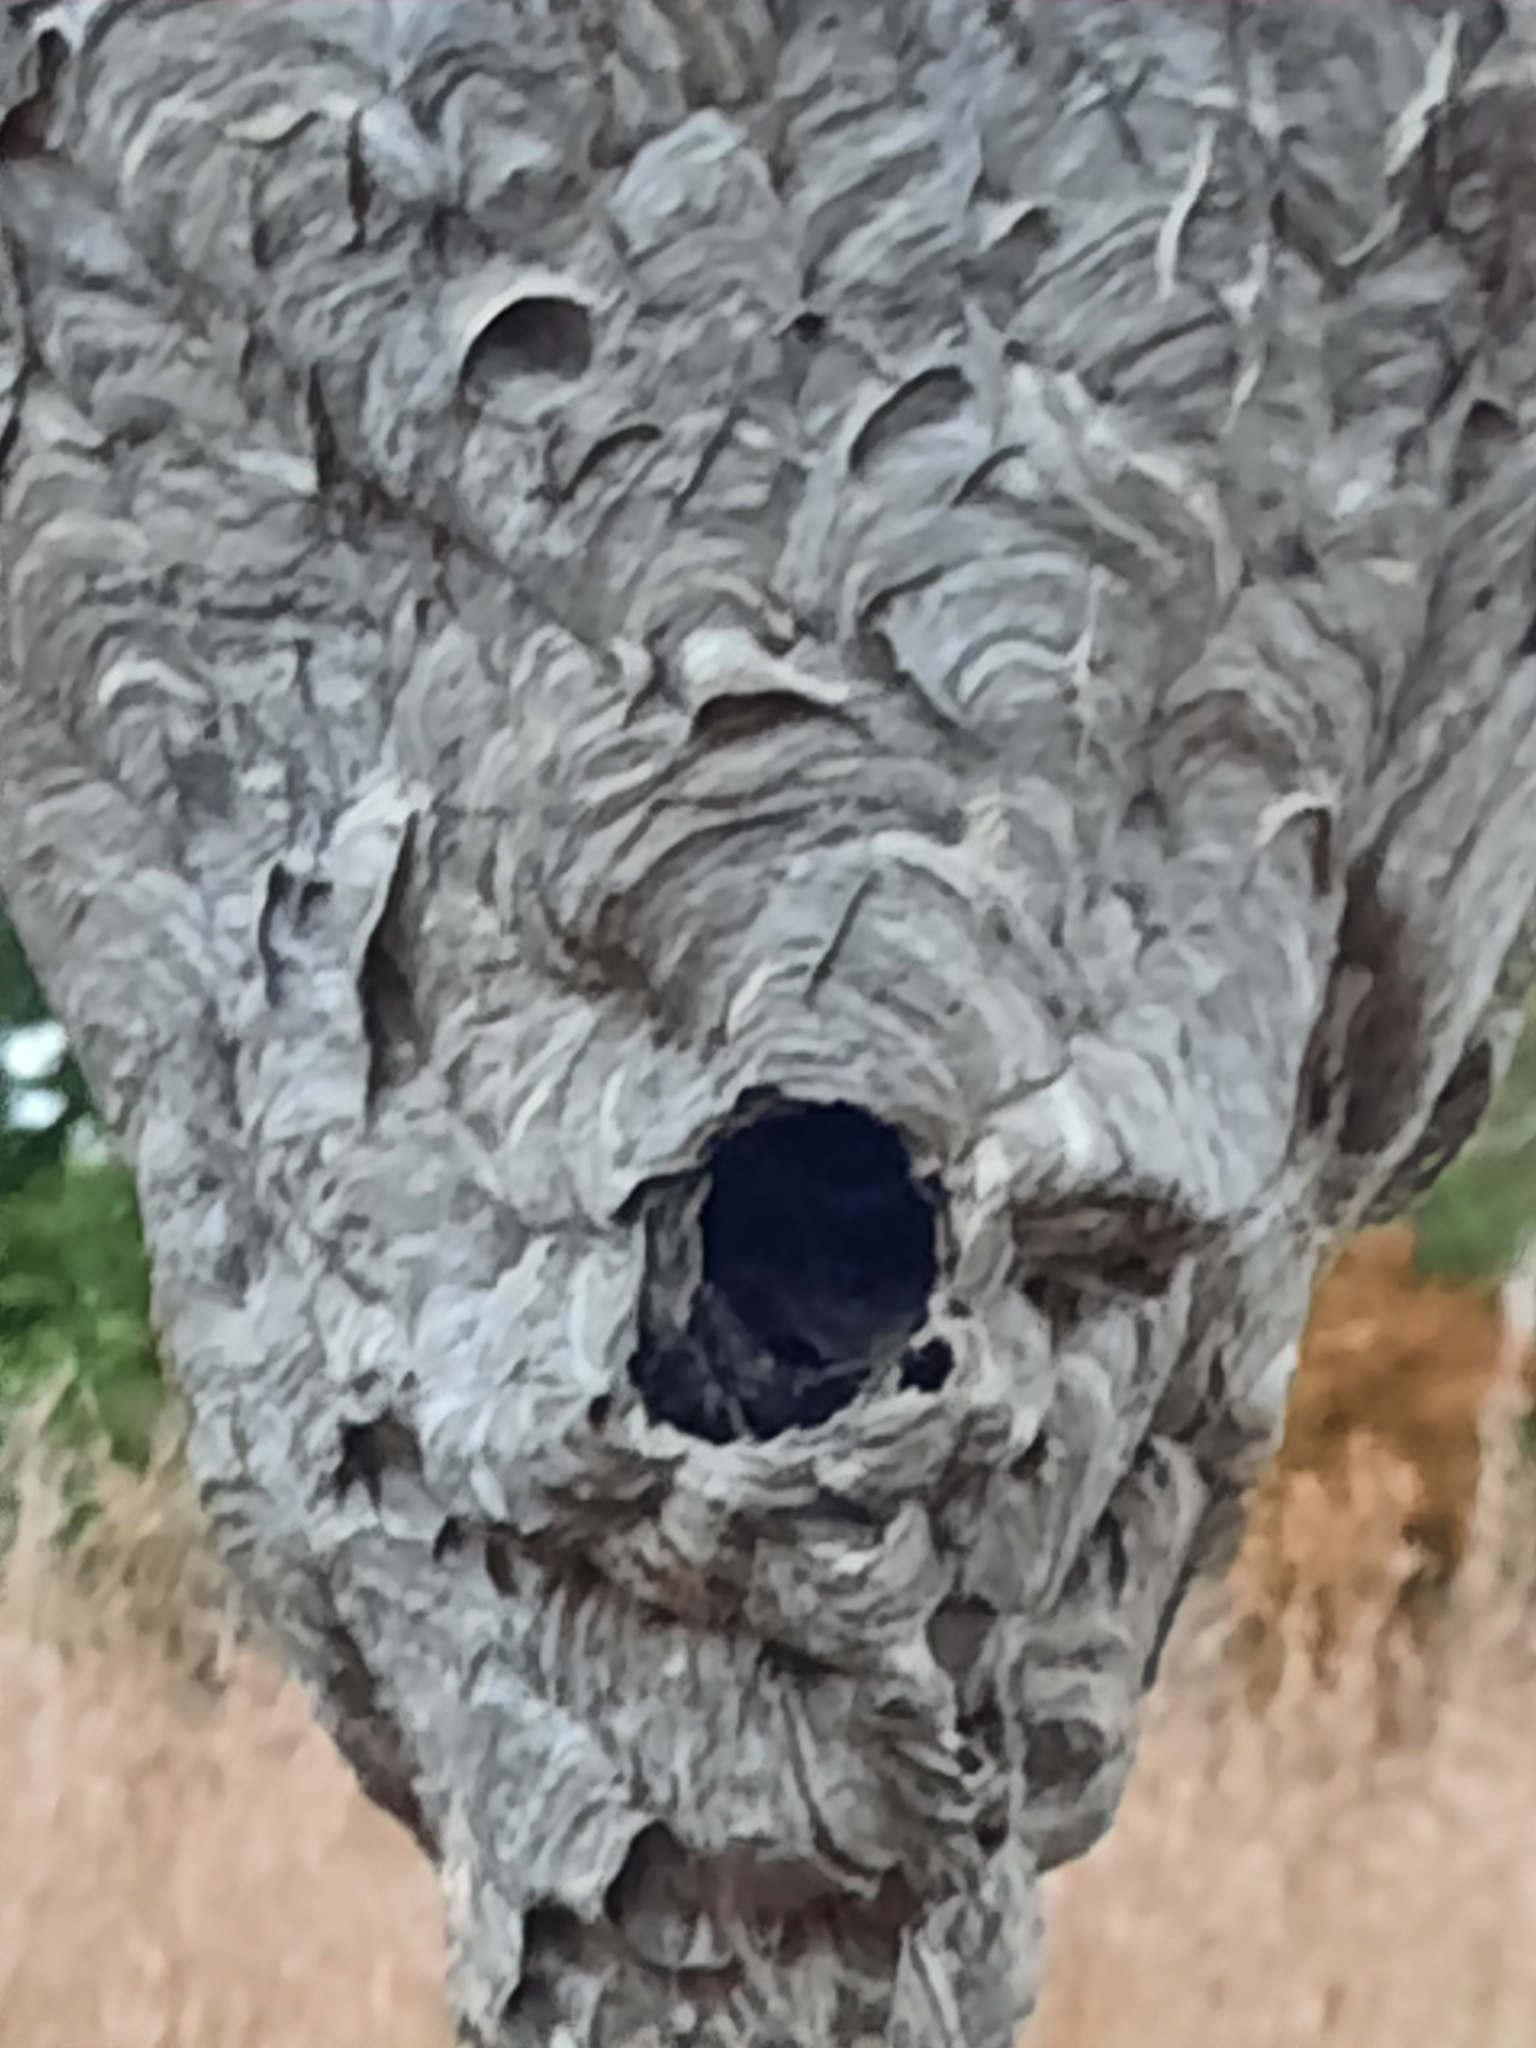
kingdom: Animalia
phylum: Arthropoda
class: Insecta
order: Hymenoptera
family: Vespidae
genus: Dolichovespula
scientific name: Dolichovespula maculata
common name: Bald-faced hornet
